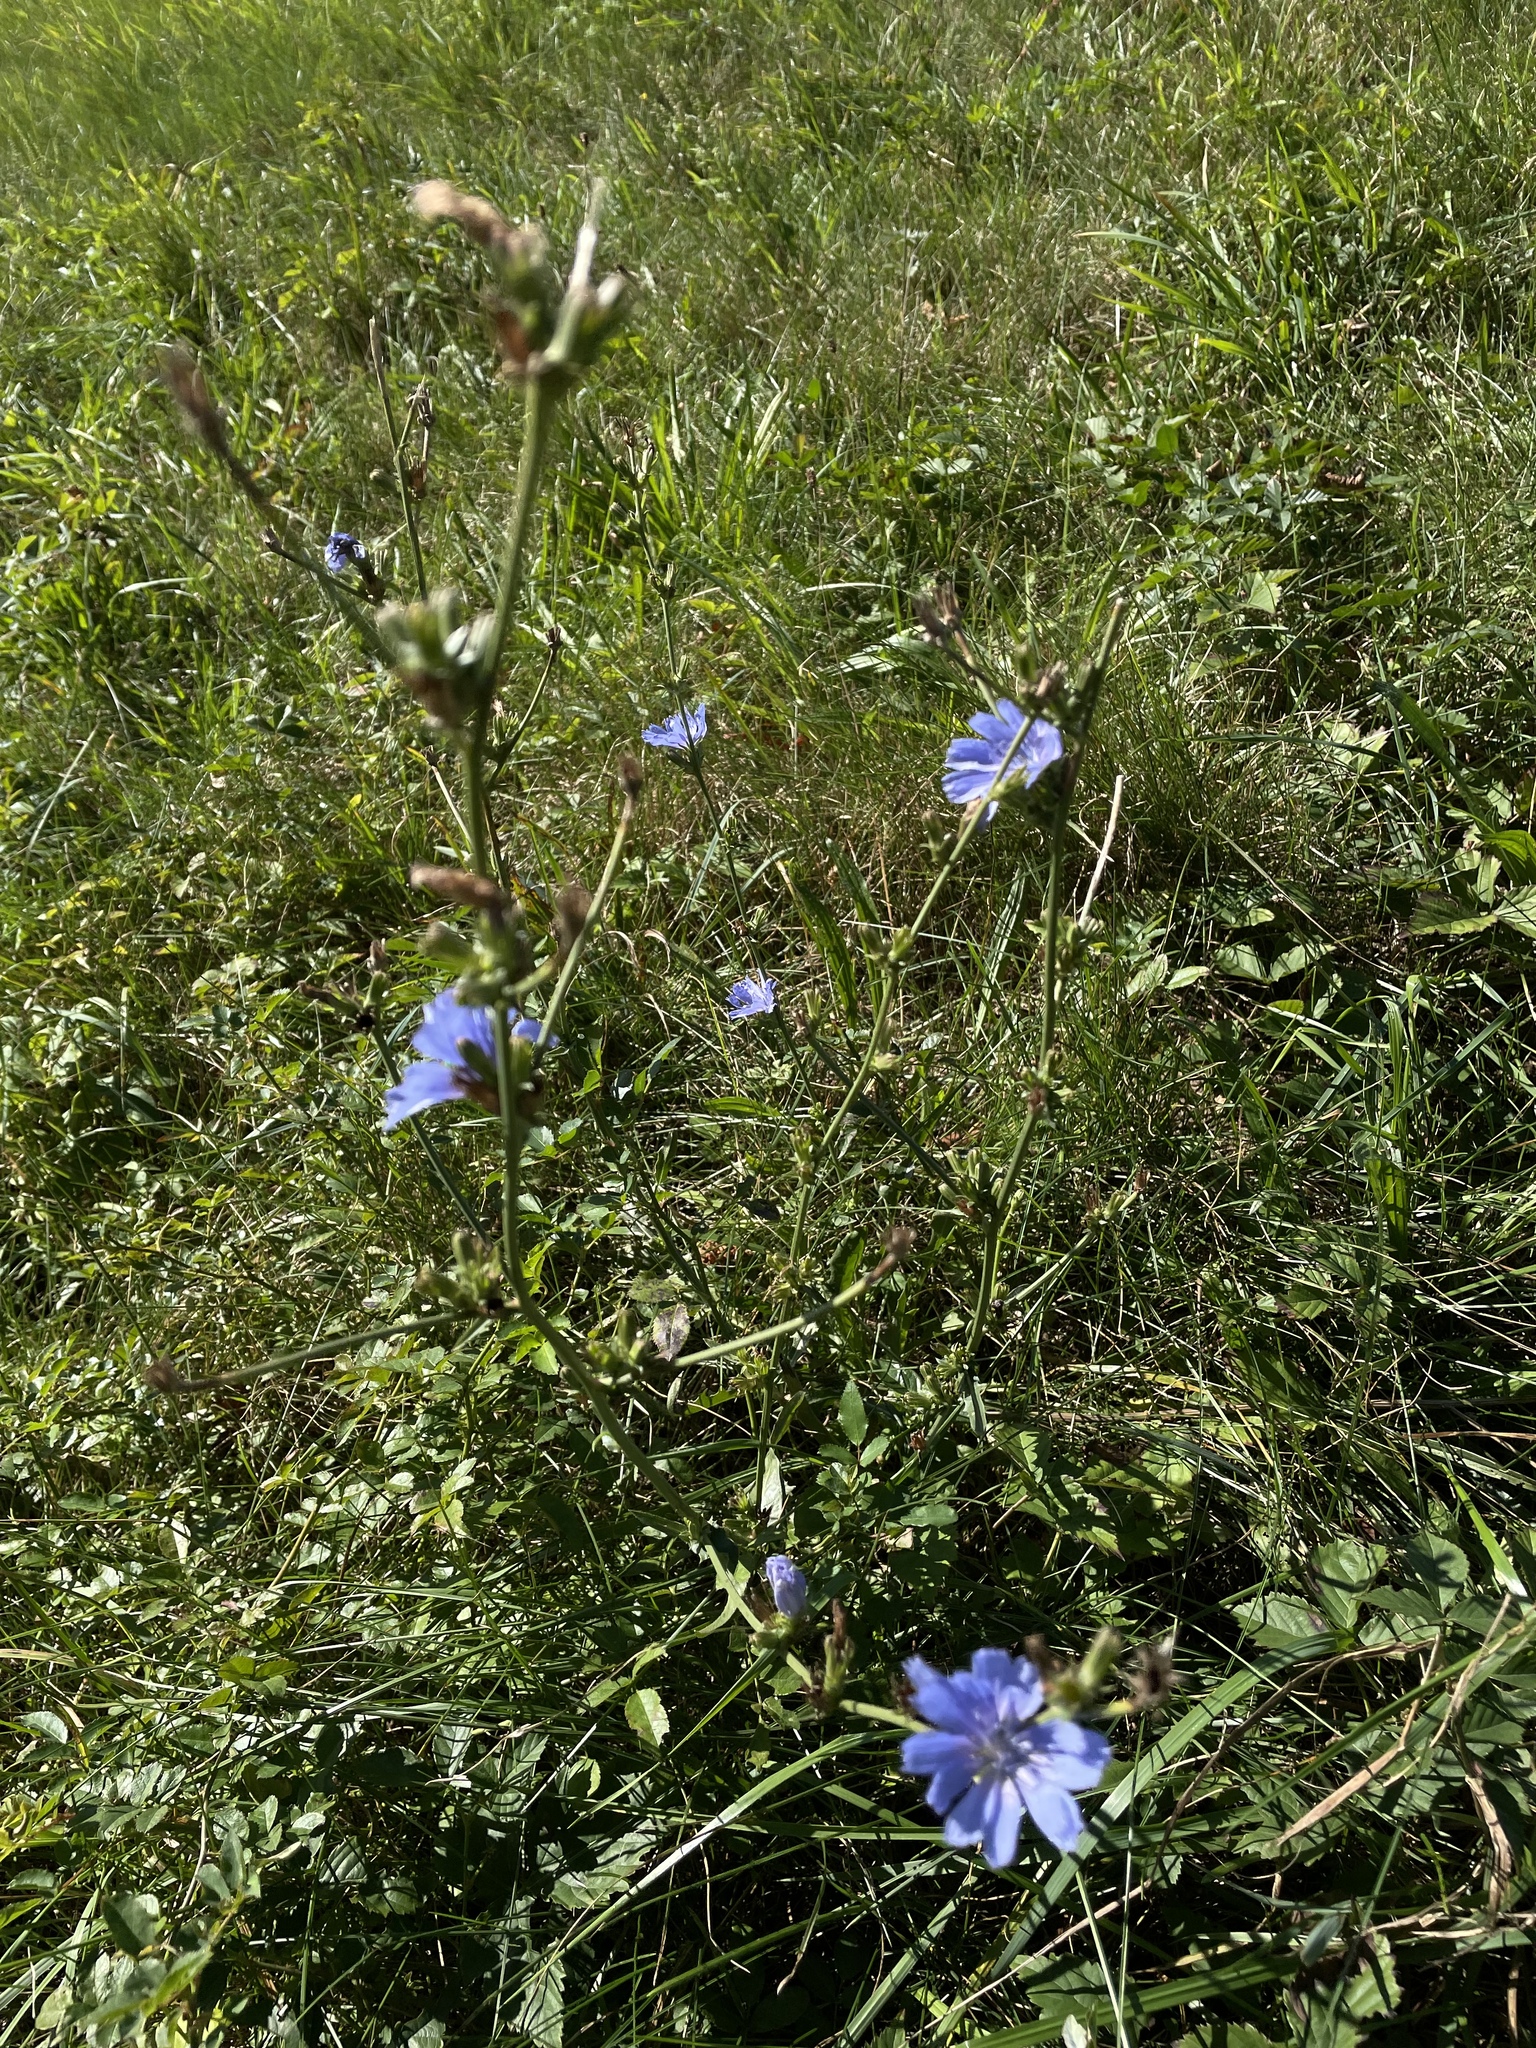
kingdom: Plantae
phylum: Tracheophyta
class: Magnoliopsida
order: Asterales
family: Asteraceae
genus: Cichorium
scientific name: Cichorium intybus
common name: Chicory
